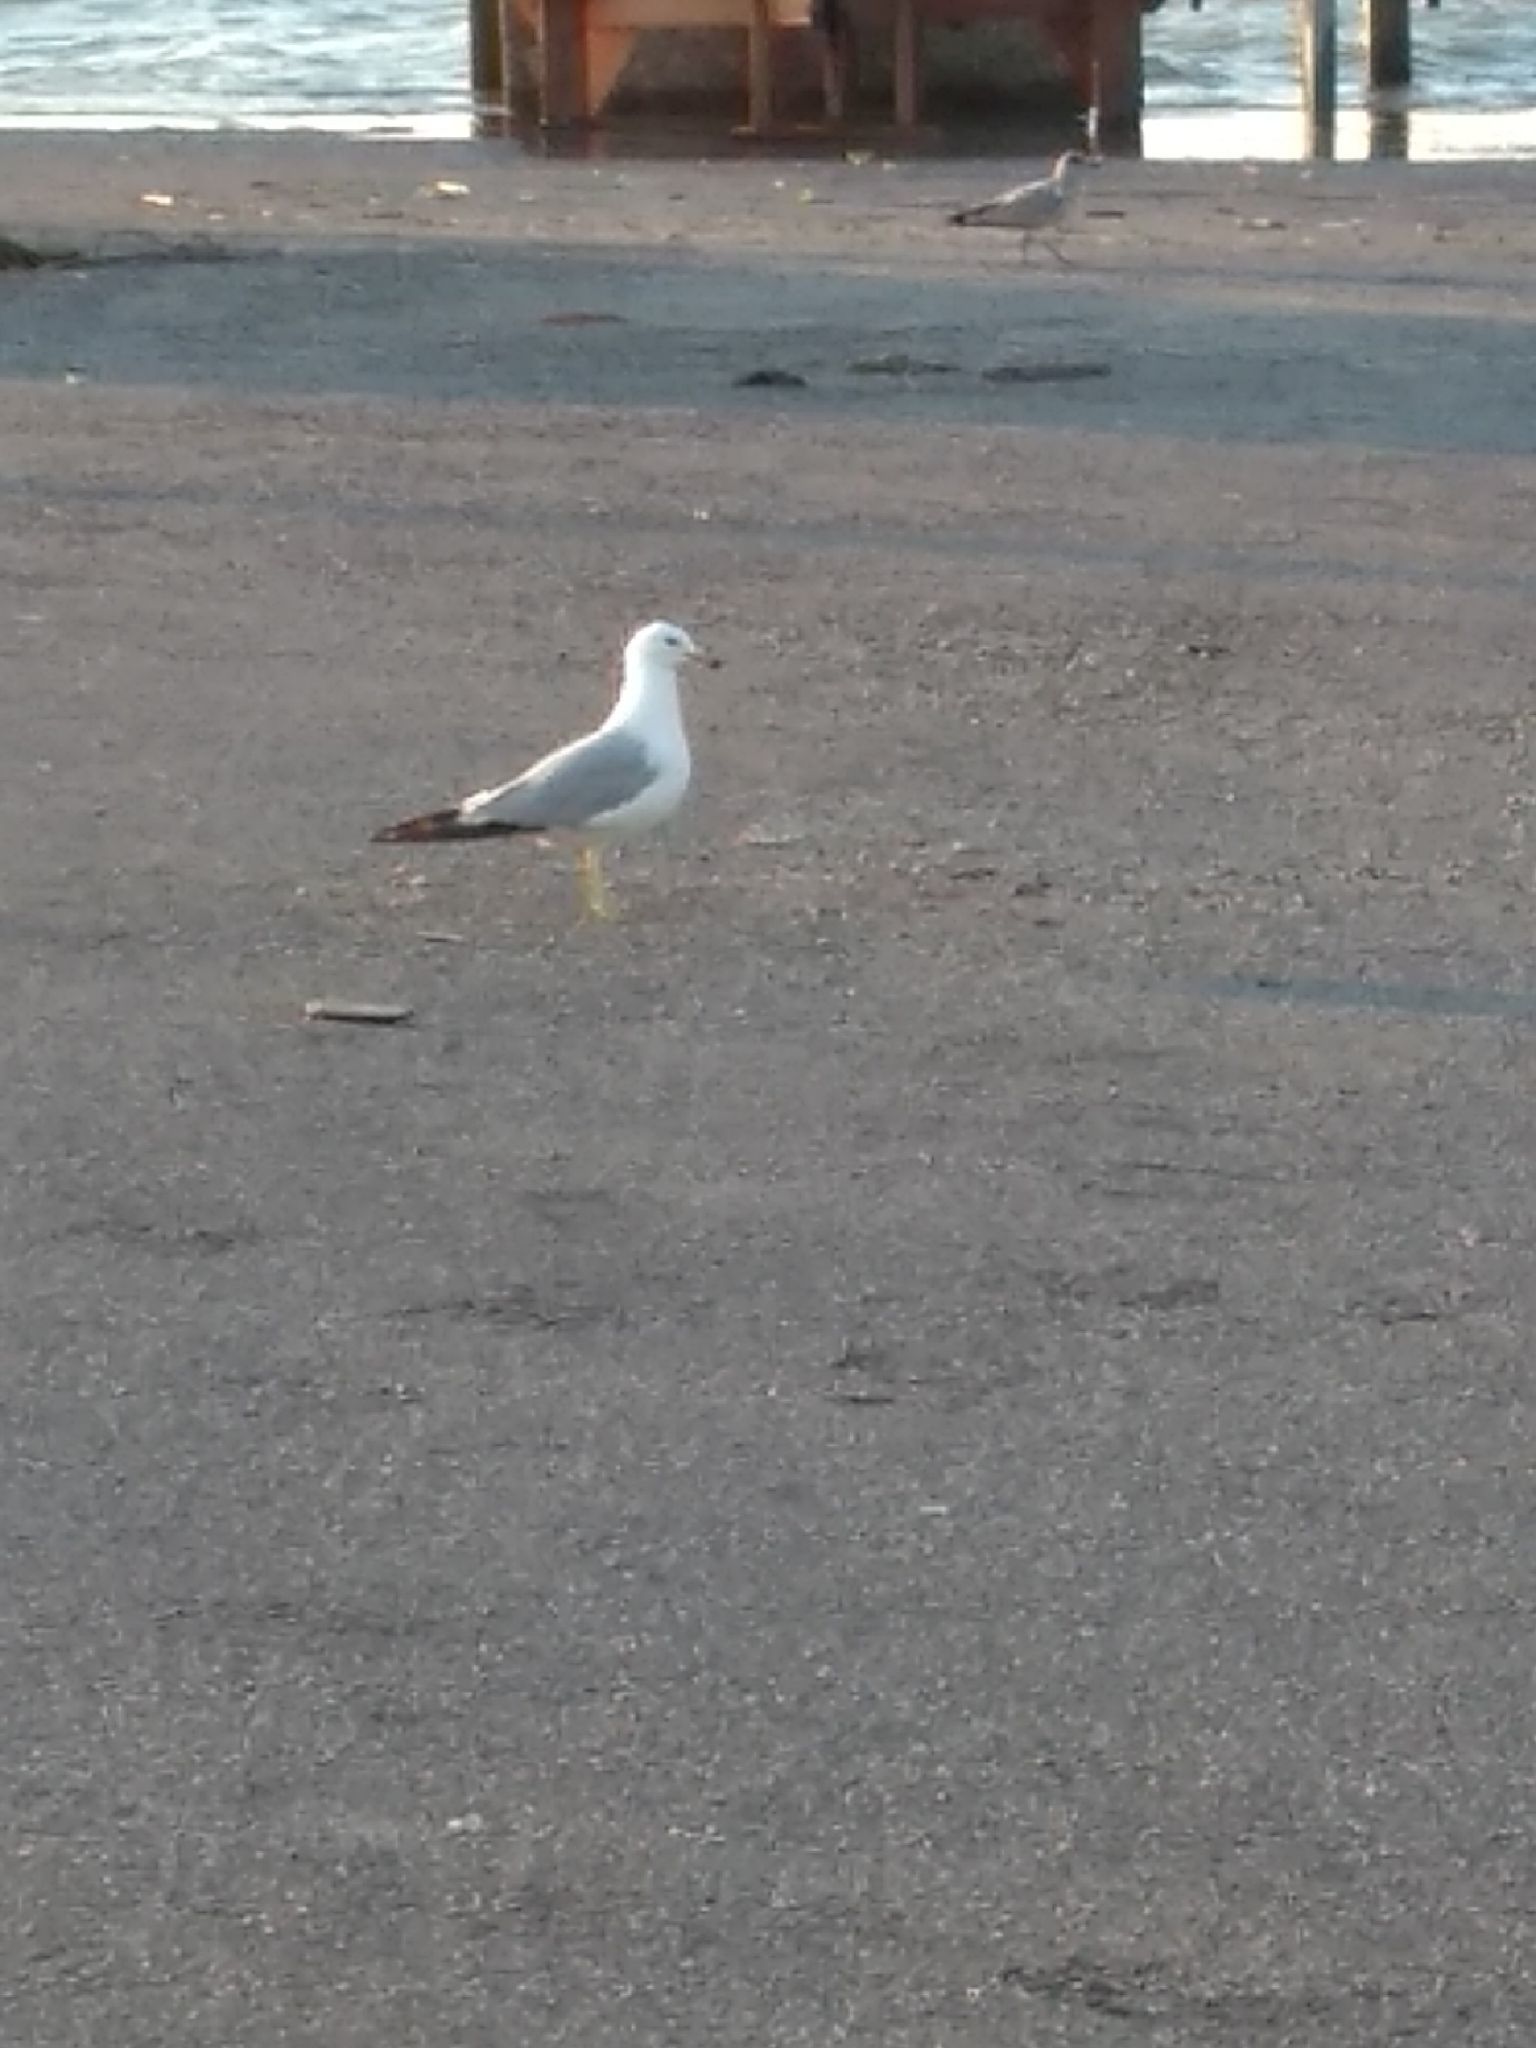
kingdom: Animalia
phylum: Chordata
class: Aves
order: Charadriiformes
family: Laridae
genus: Larus
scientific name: Larus delawarensis
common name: Ring-billed gull
